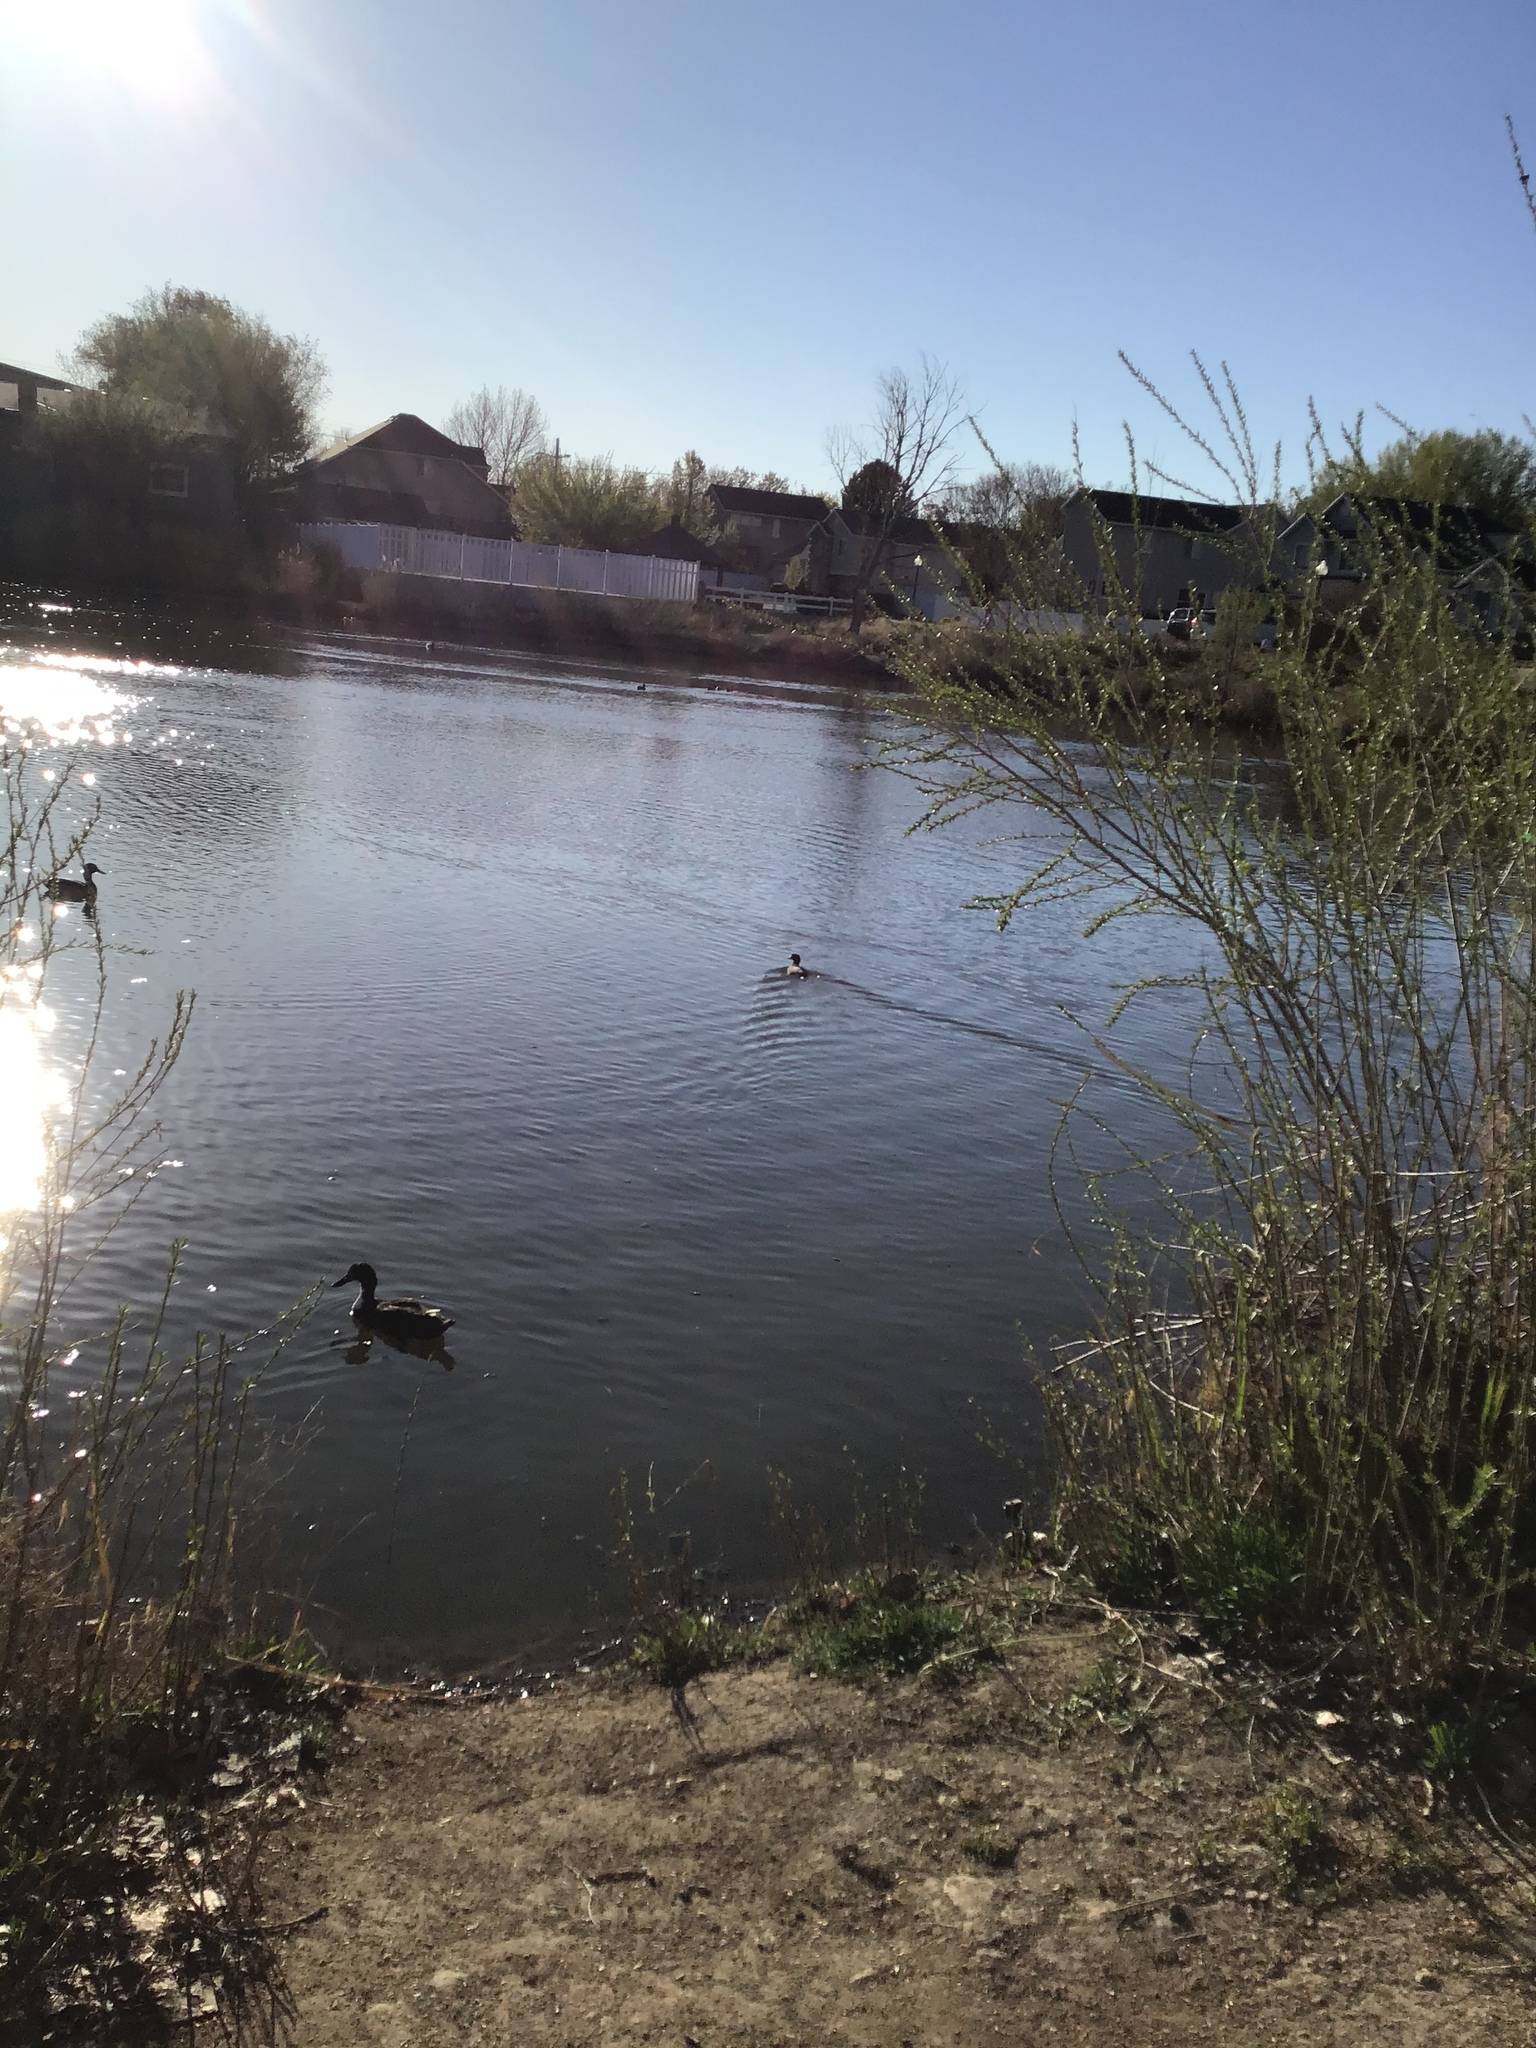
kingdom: Animalia
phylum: Chordata
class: Aves
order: Gruiformes
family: Rallidae
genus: Fulica
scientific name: Fulica americana
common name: American coot
